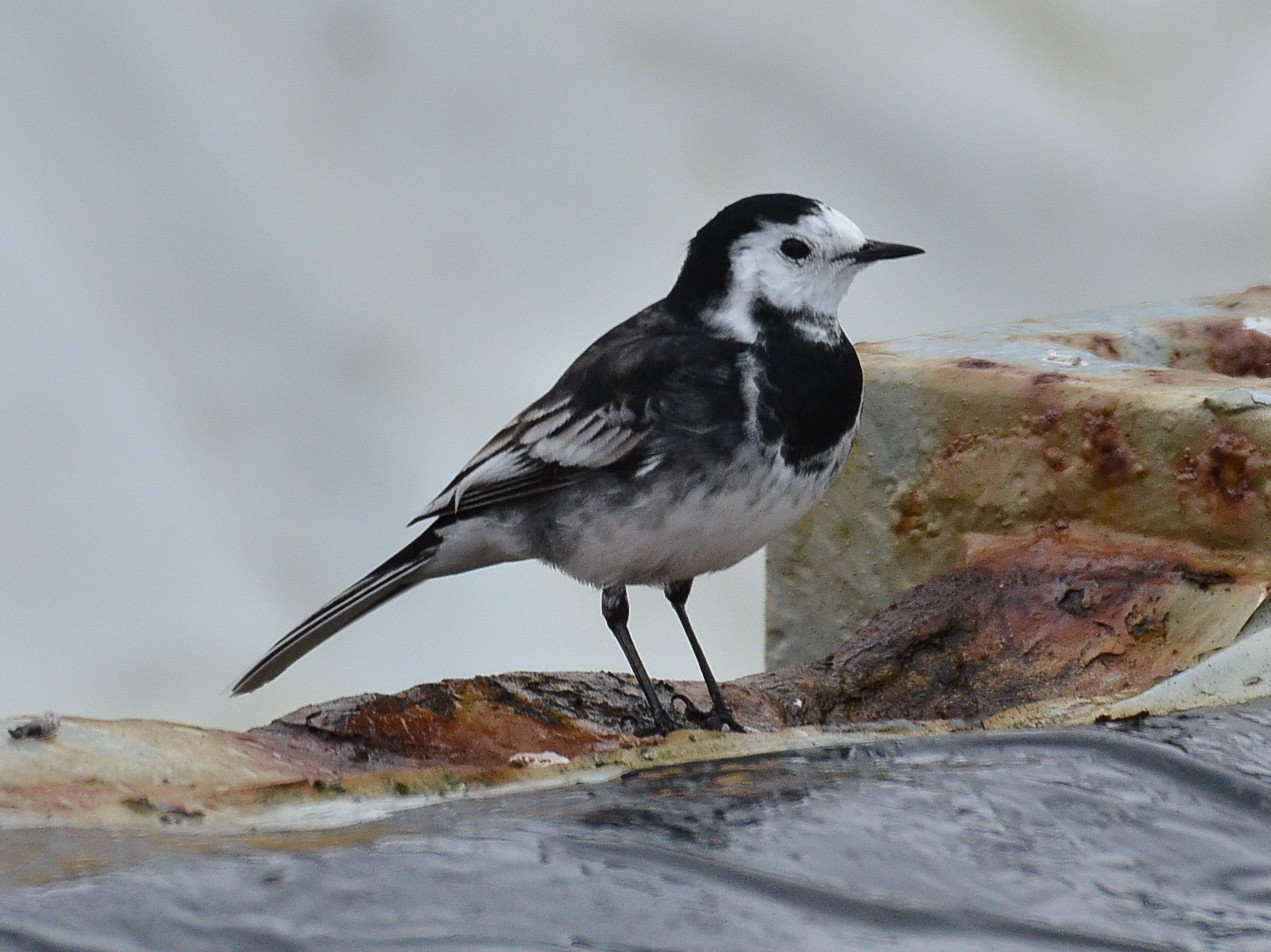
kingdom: Animalia
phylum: Chordata
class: Aves
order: Passeriformes
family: Motacillidae
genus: Motacilla
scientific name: Motacilla alba
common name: White wagtail
